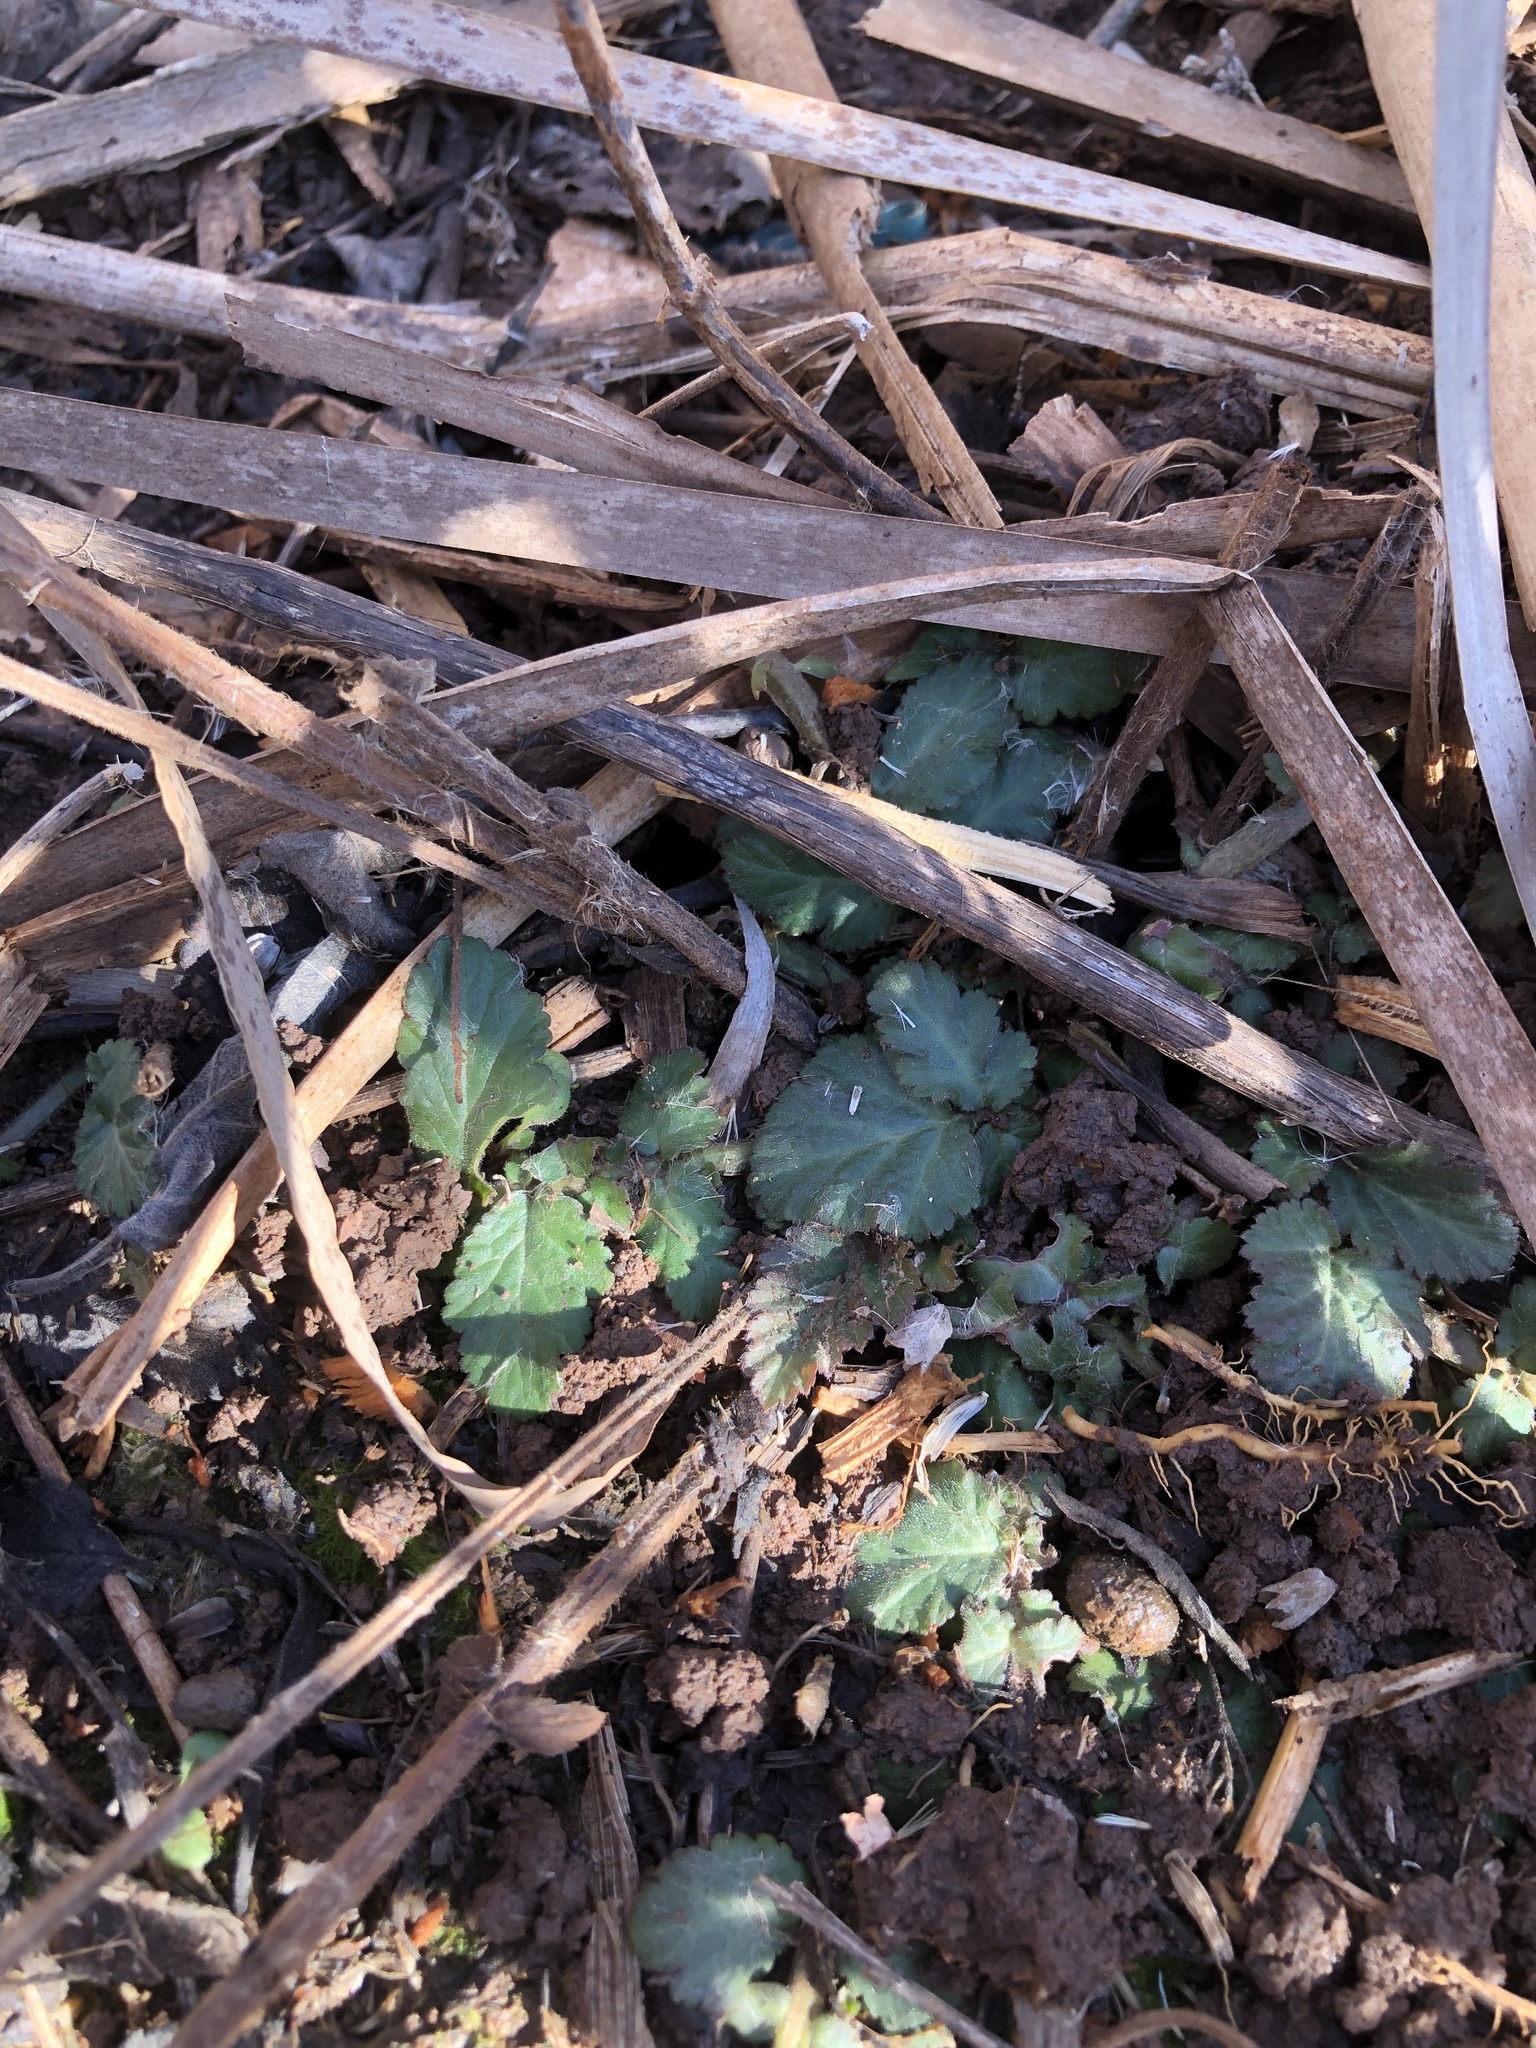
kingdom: Plantae
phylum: Tracheophyta
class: Magnoliopsida
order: Rosales
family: Rosaceae
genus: Geum
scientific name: Geum canadense
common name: White avens
